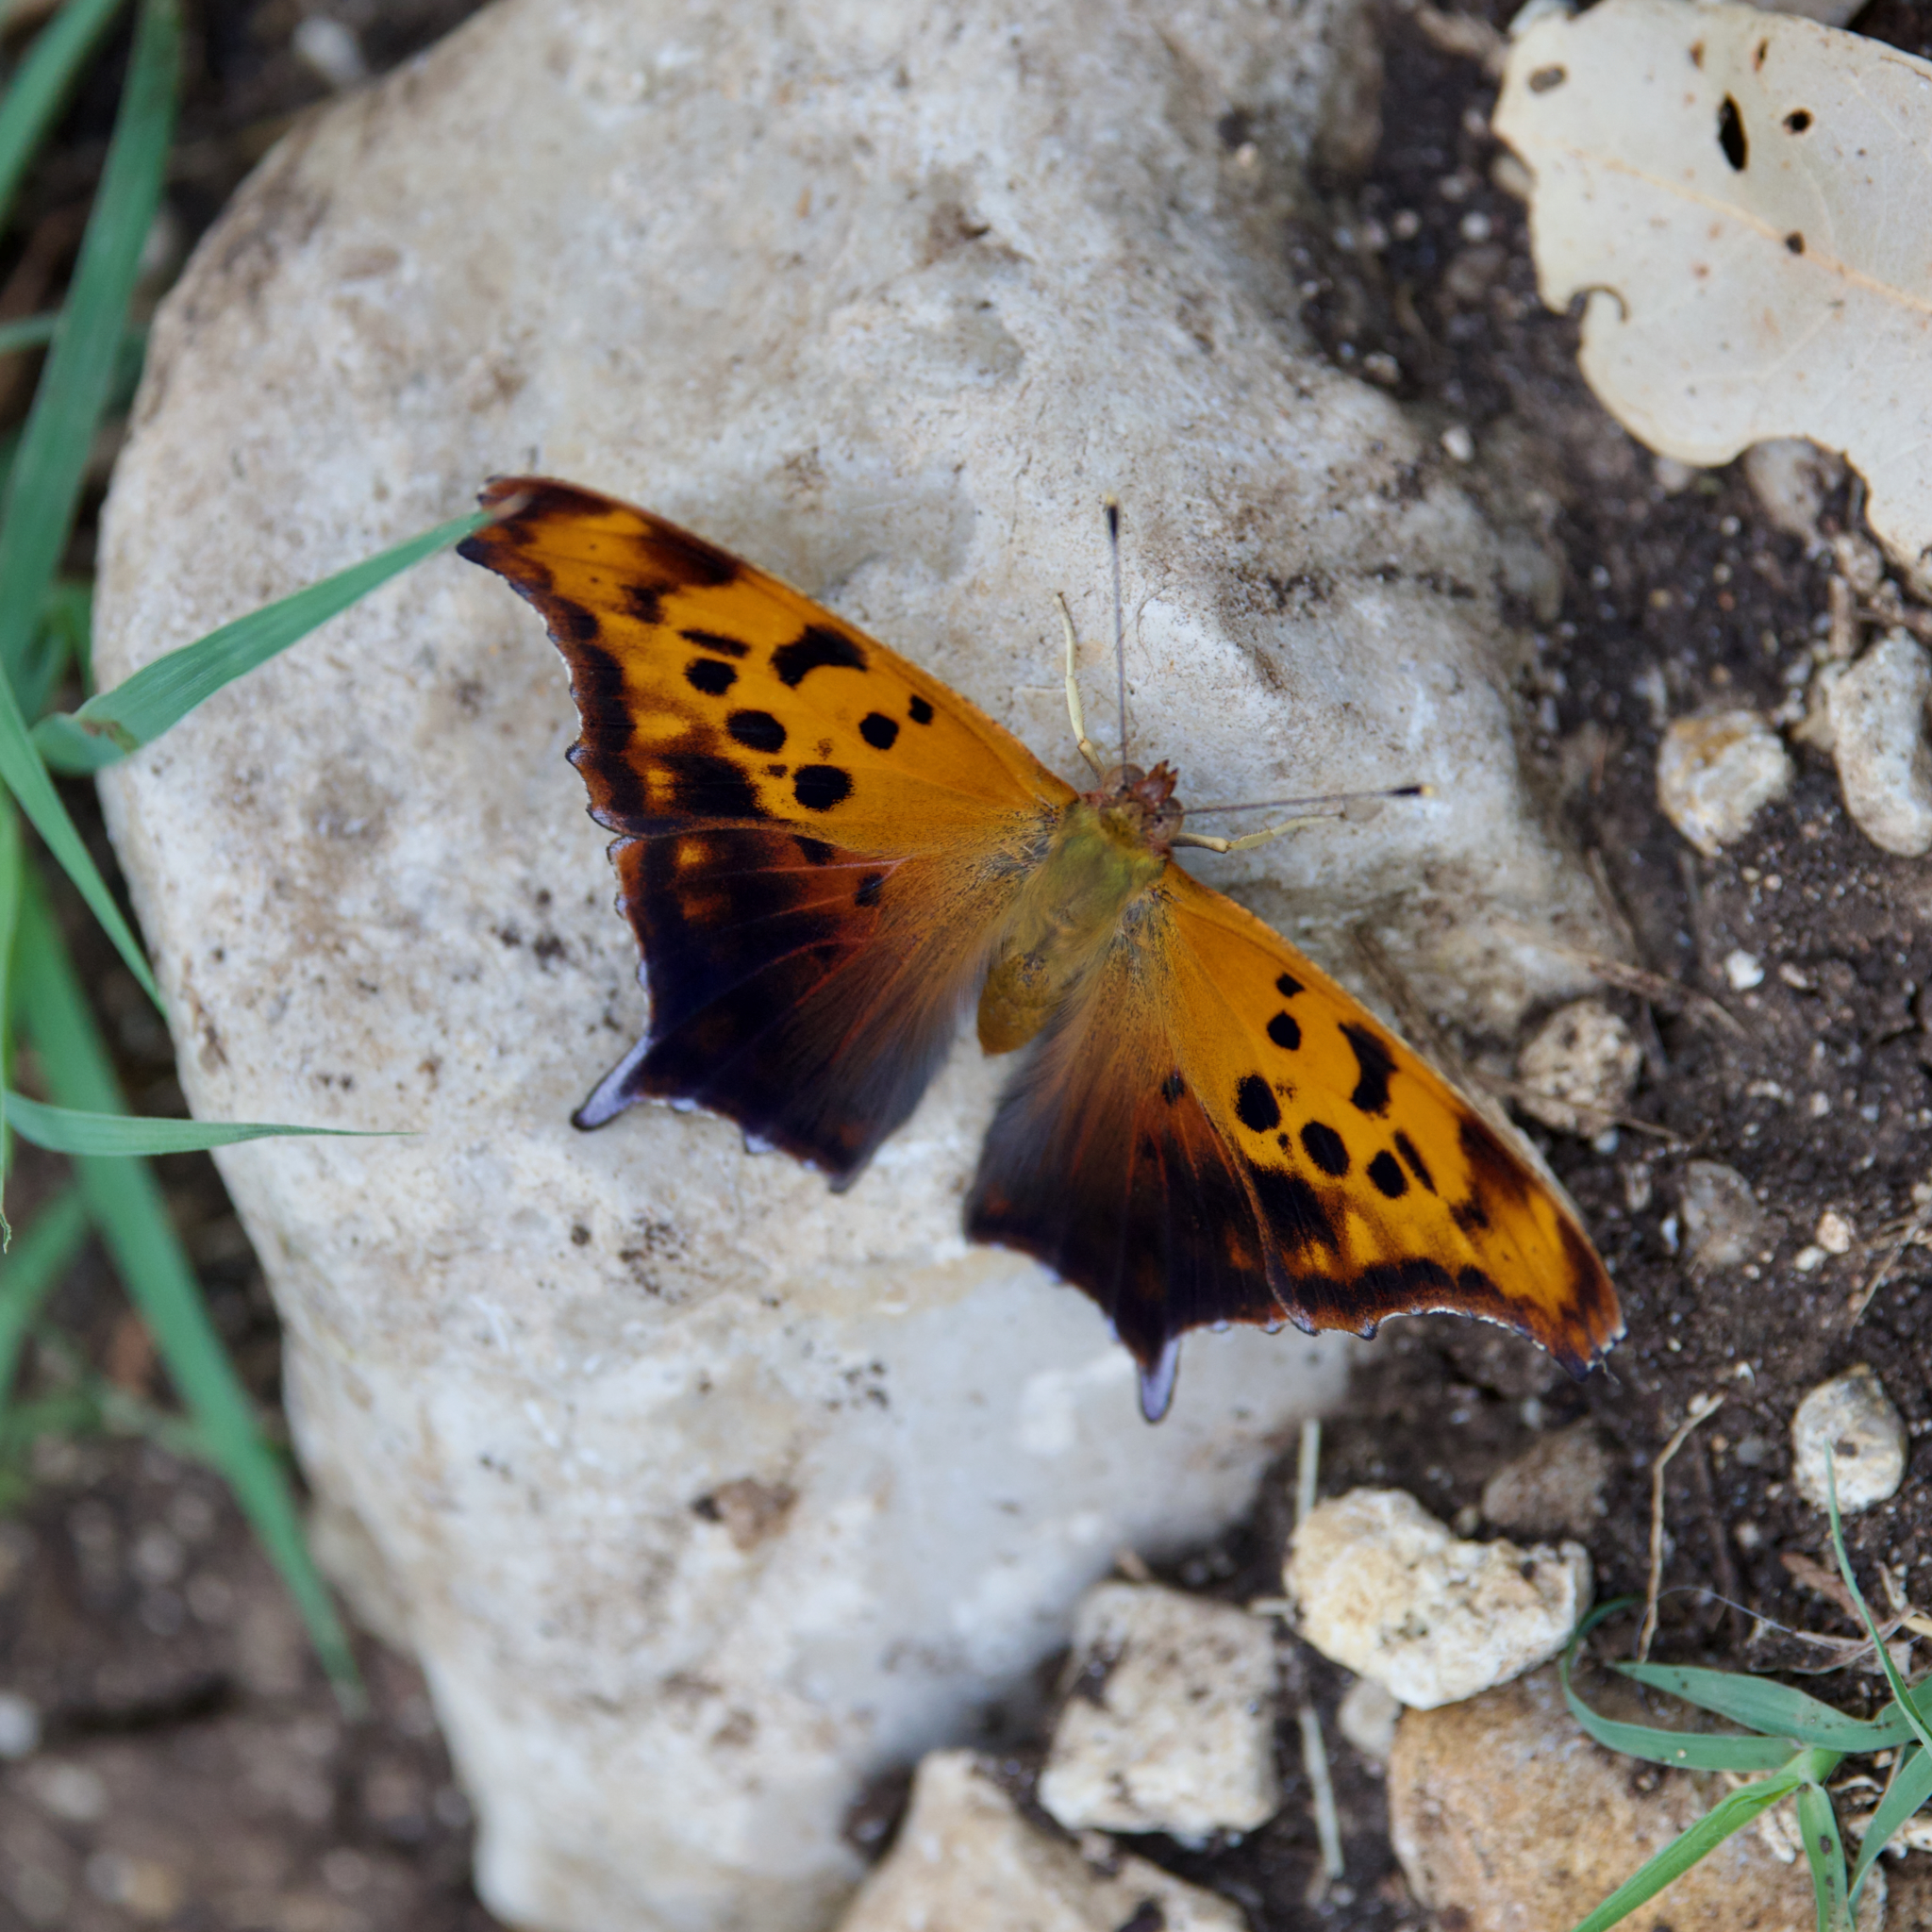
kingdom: Animalia
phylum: Arthropoda
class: Insecta
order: Lepidoptera
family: Nymphalidae
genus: Polygonia
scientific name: Polygonia interrogationis
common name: Question mark
